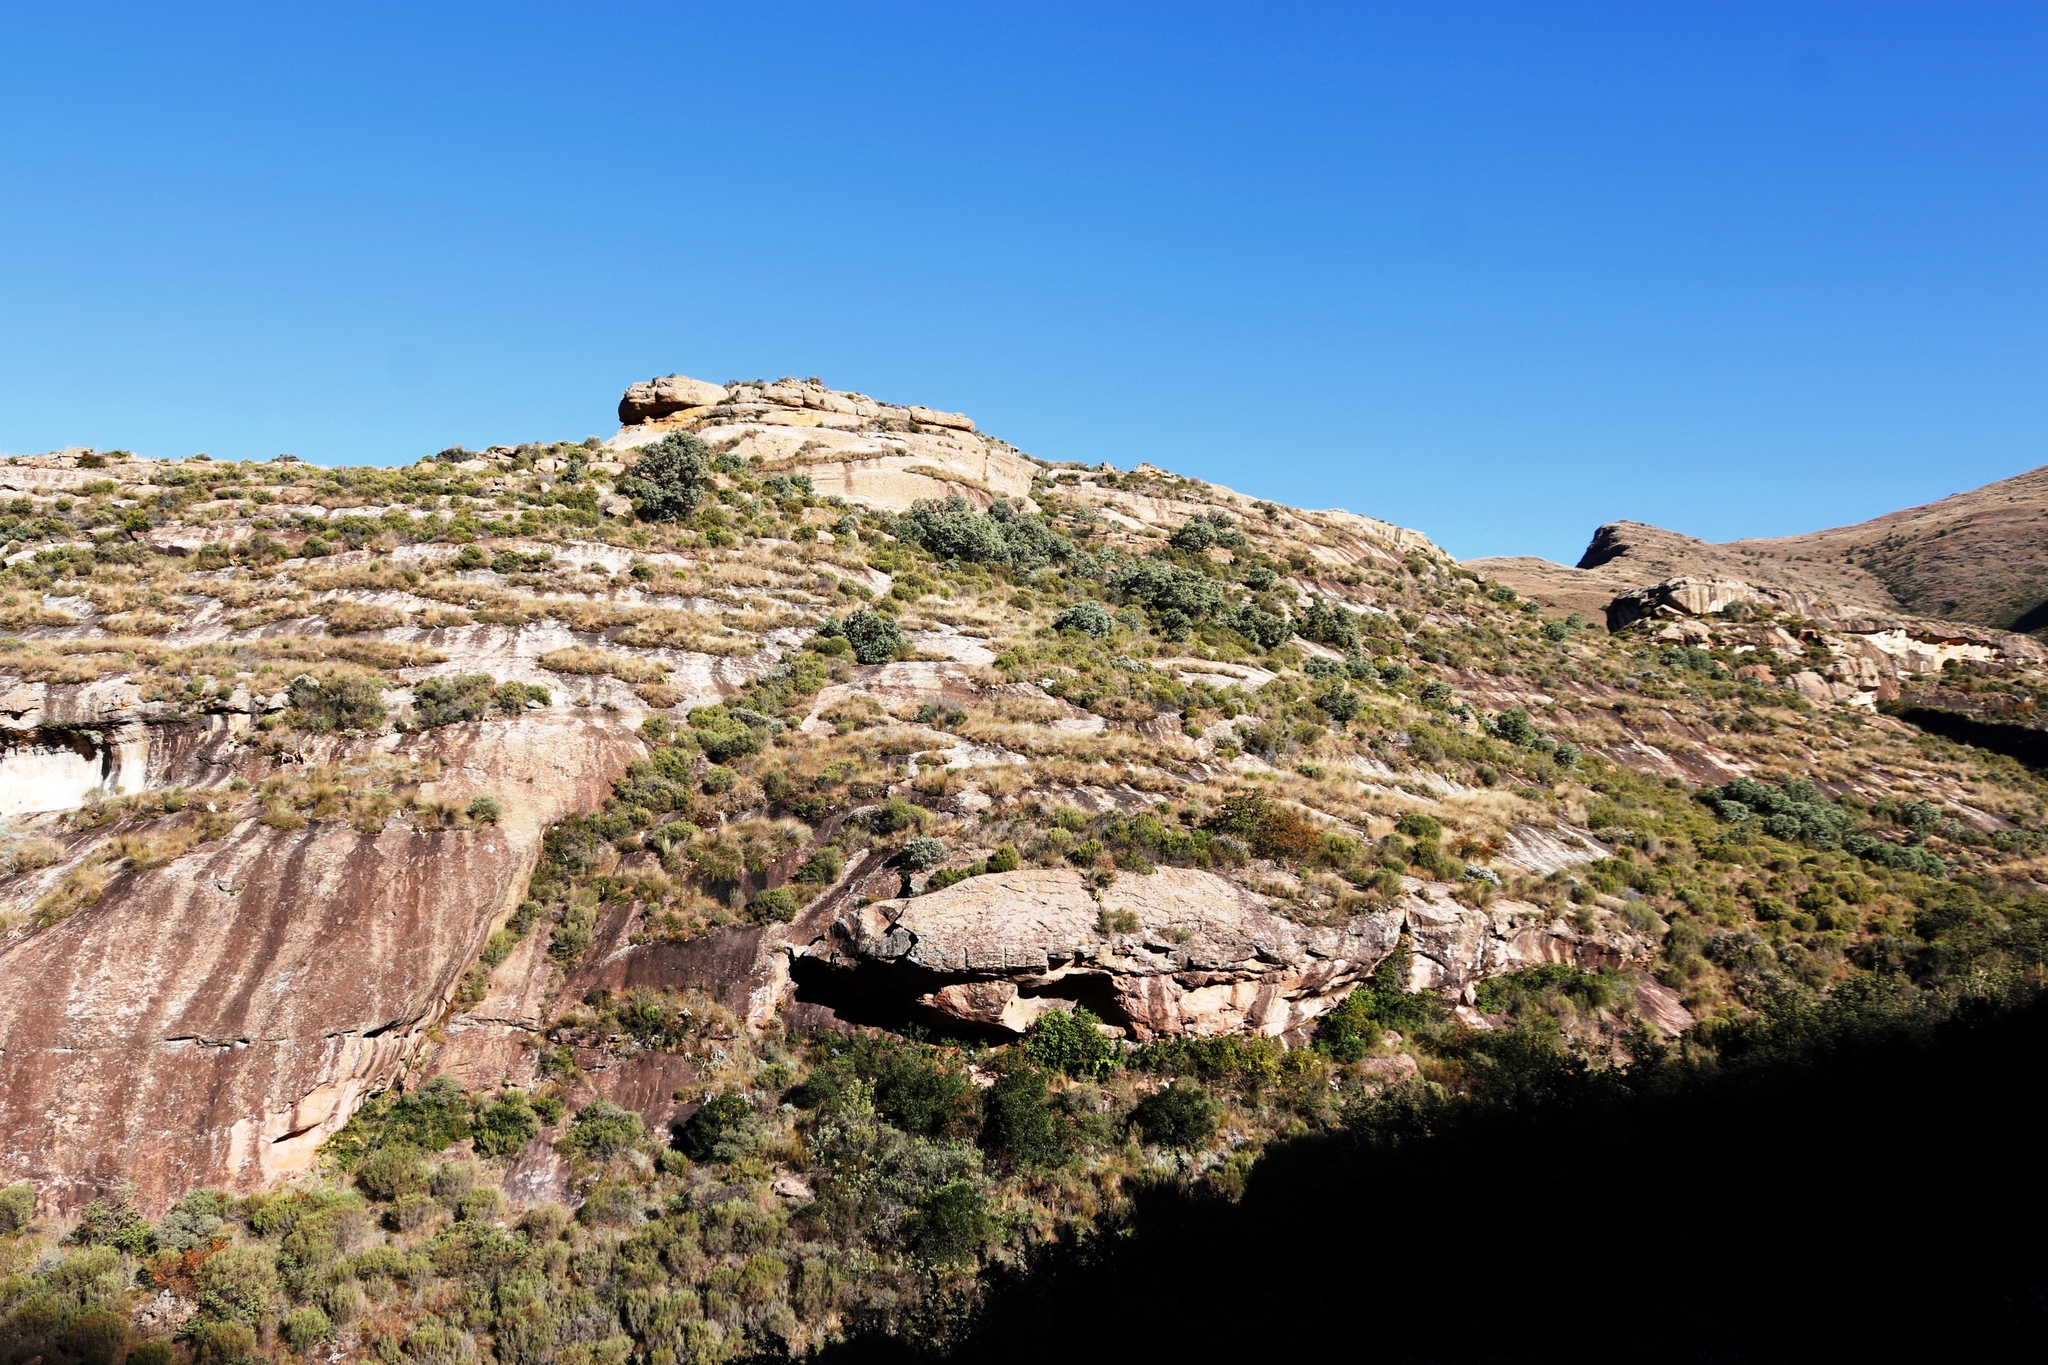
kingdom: Plantae
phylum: Tracheophyta
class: Magnoliopsida
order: Proteales
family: Proteaceae
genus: Protea
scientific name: Protea caffra
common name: Common sugarbush
